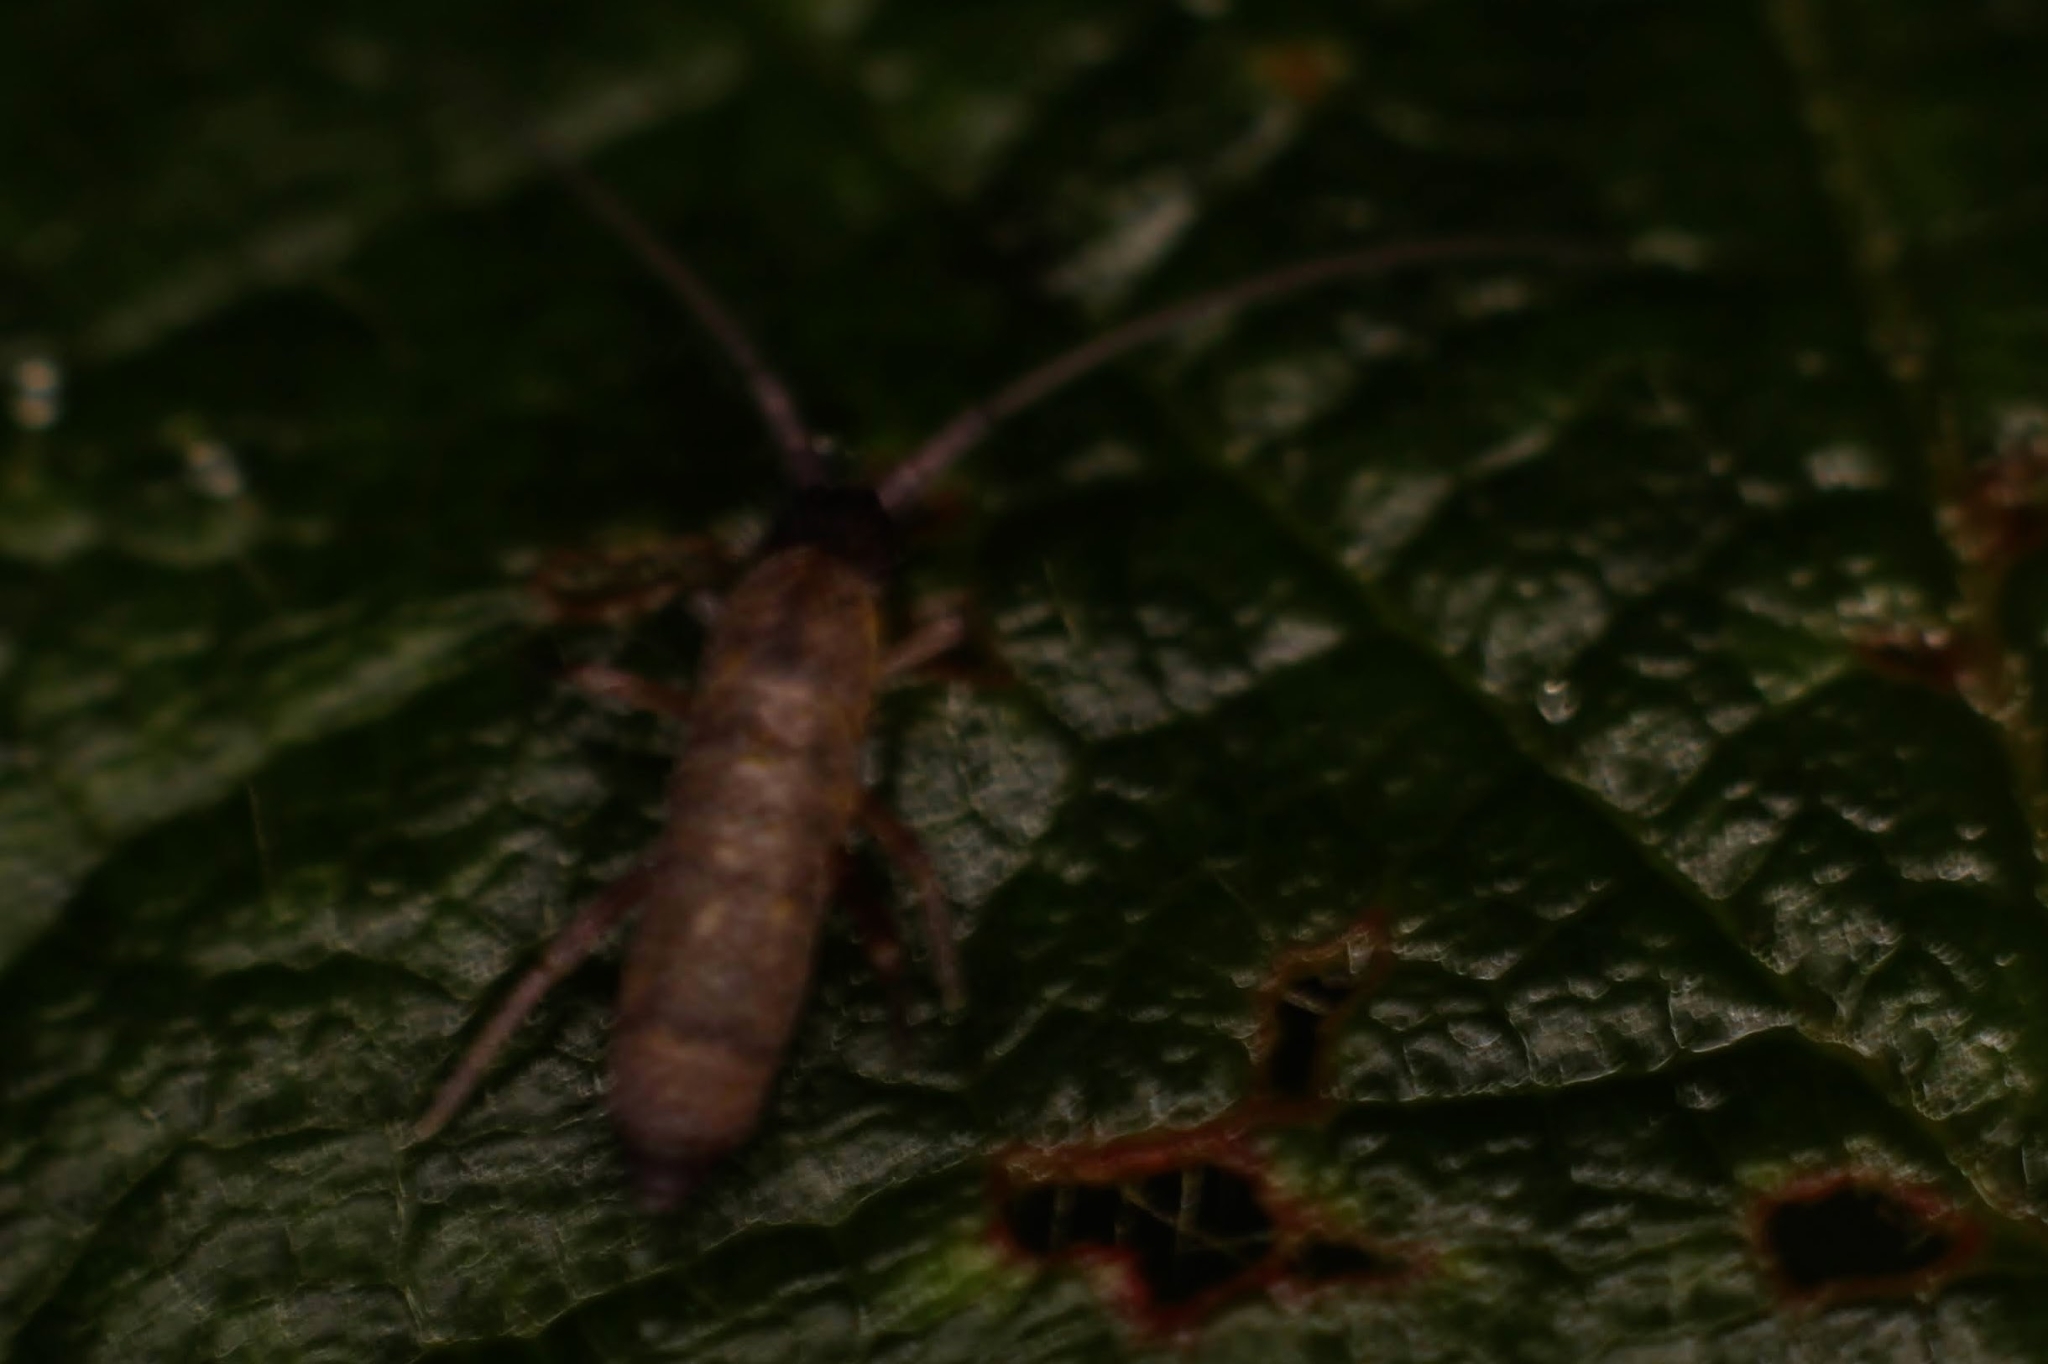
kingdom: Animalia
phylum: Arthropoda
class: Collembola
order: Entomobryomorpha
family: Tomoceridae
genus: Pogonognathellus
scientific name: Pogonognathellus longicornis
